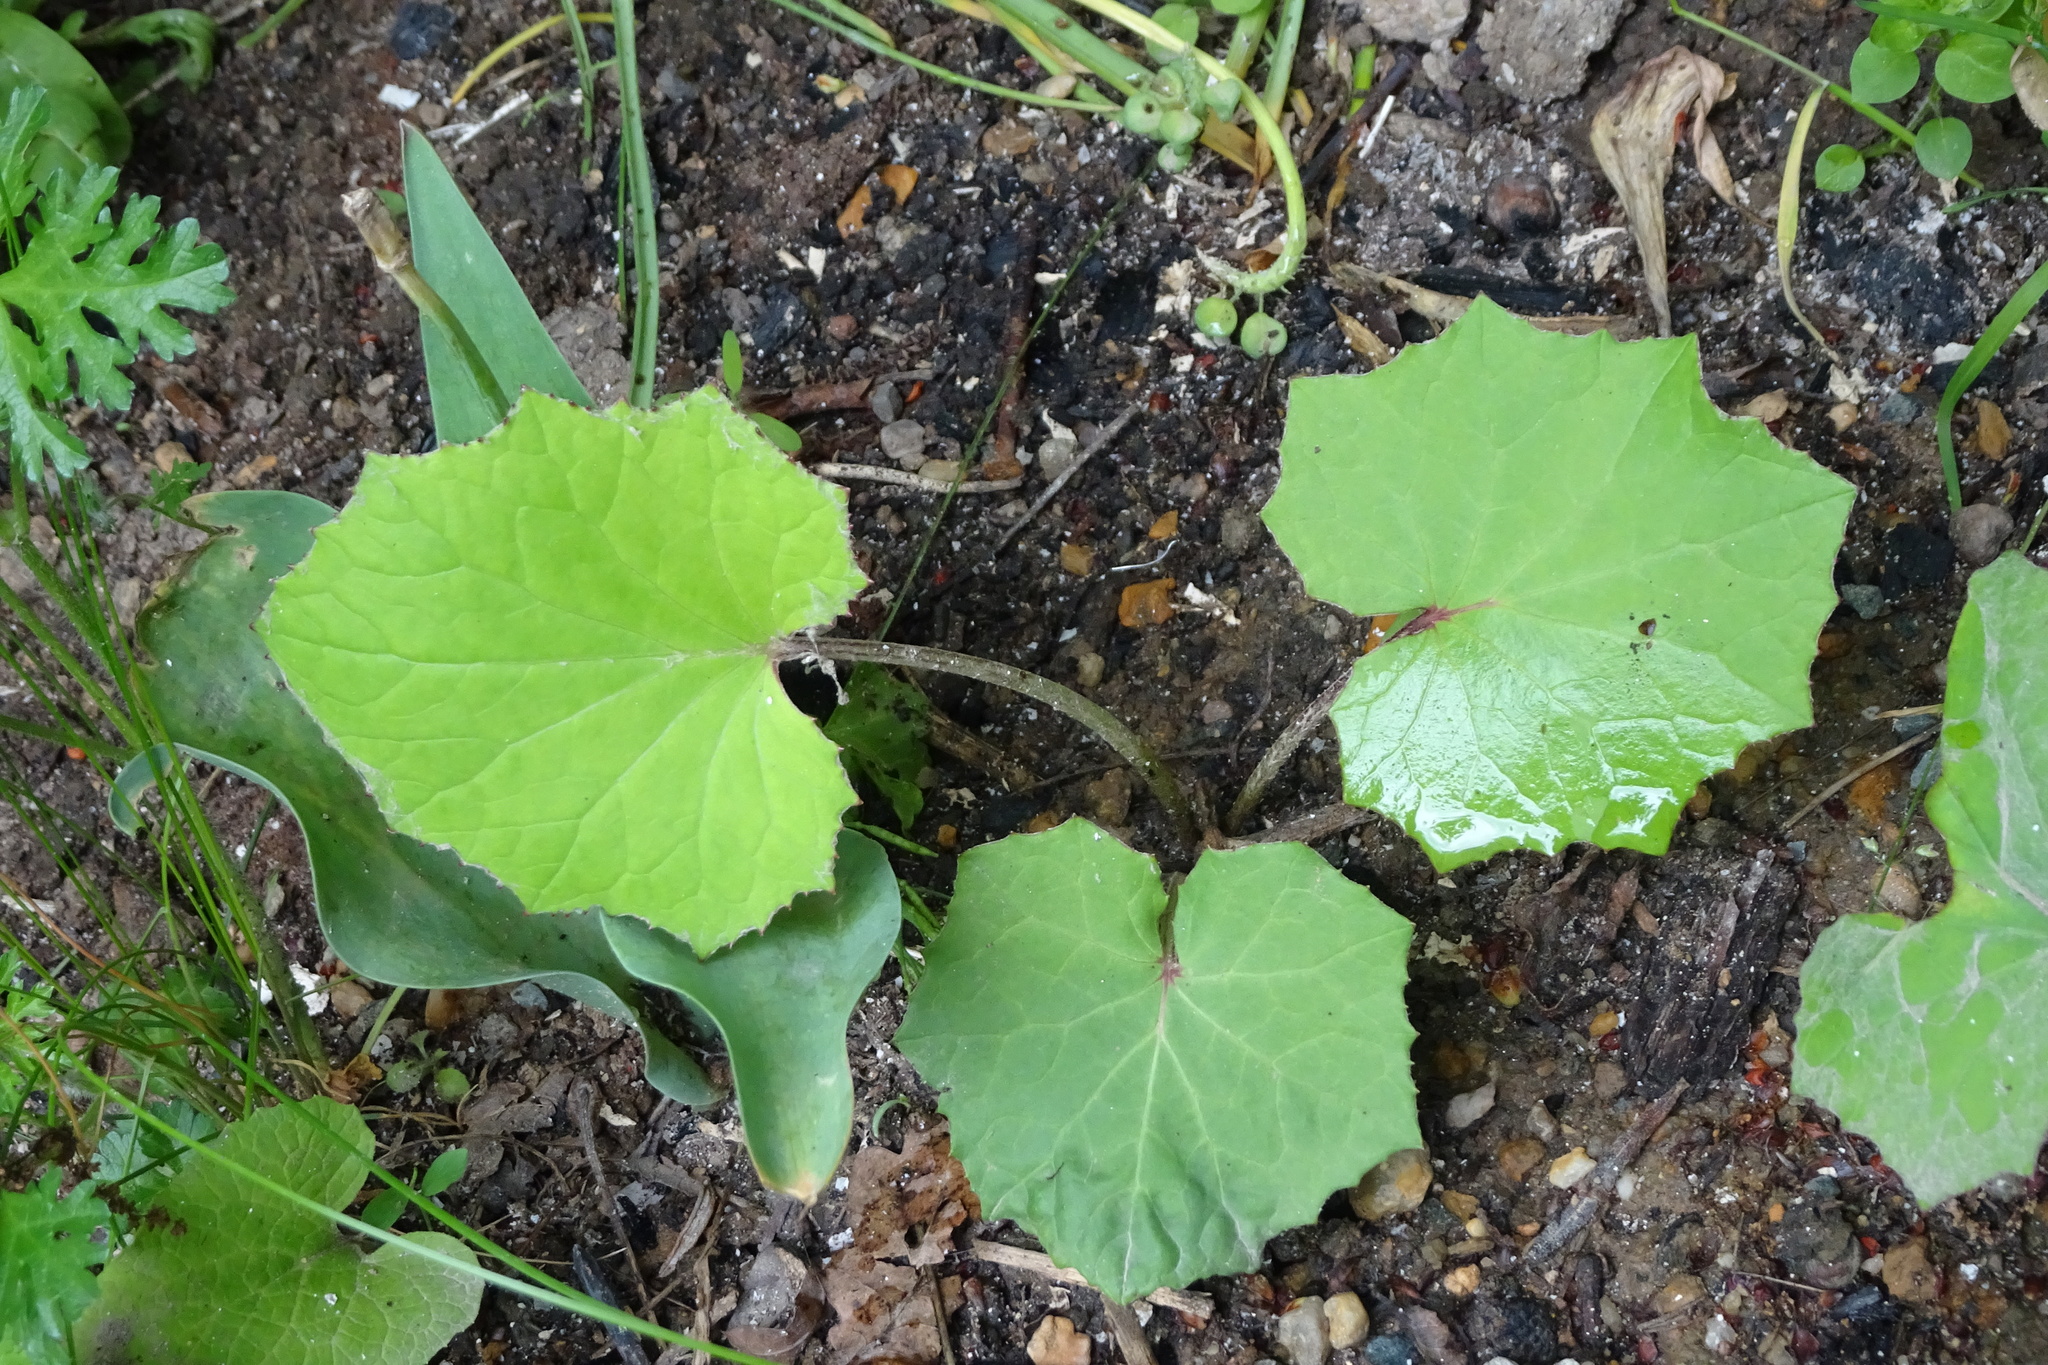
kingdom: Plantae
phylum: Tracheophyta
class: Magnoliopsida
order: Asterales
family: Asteraceae
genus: Tussilago
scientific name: Tussilago farfara
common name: Coltsfoot
